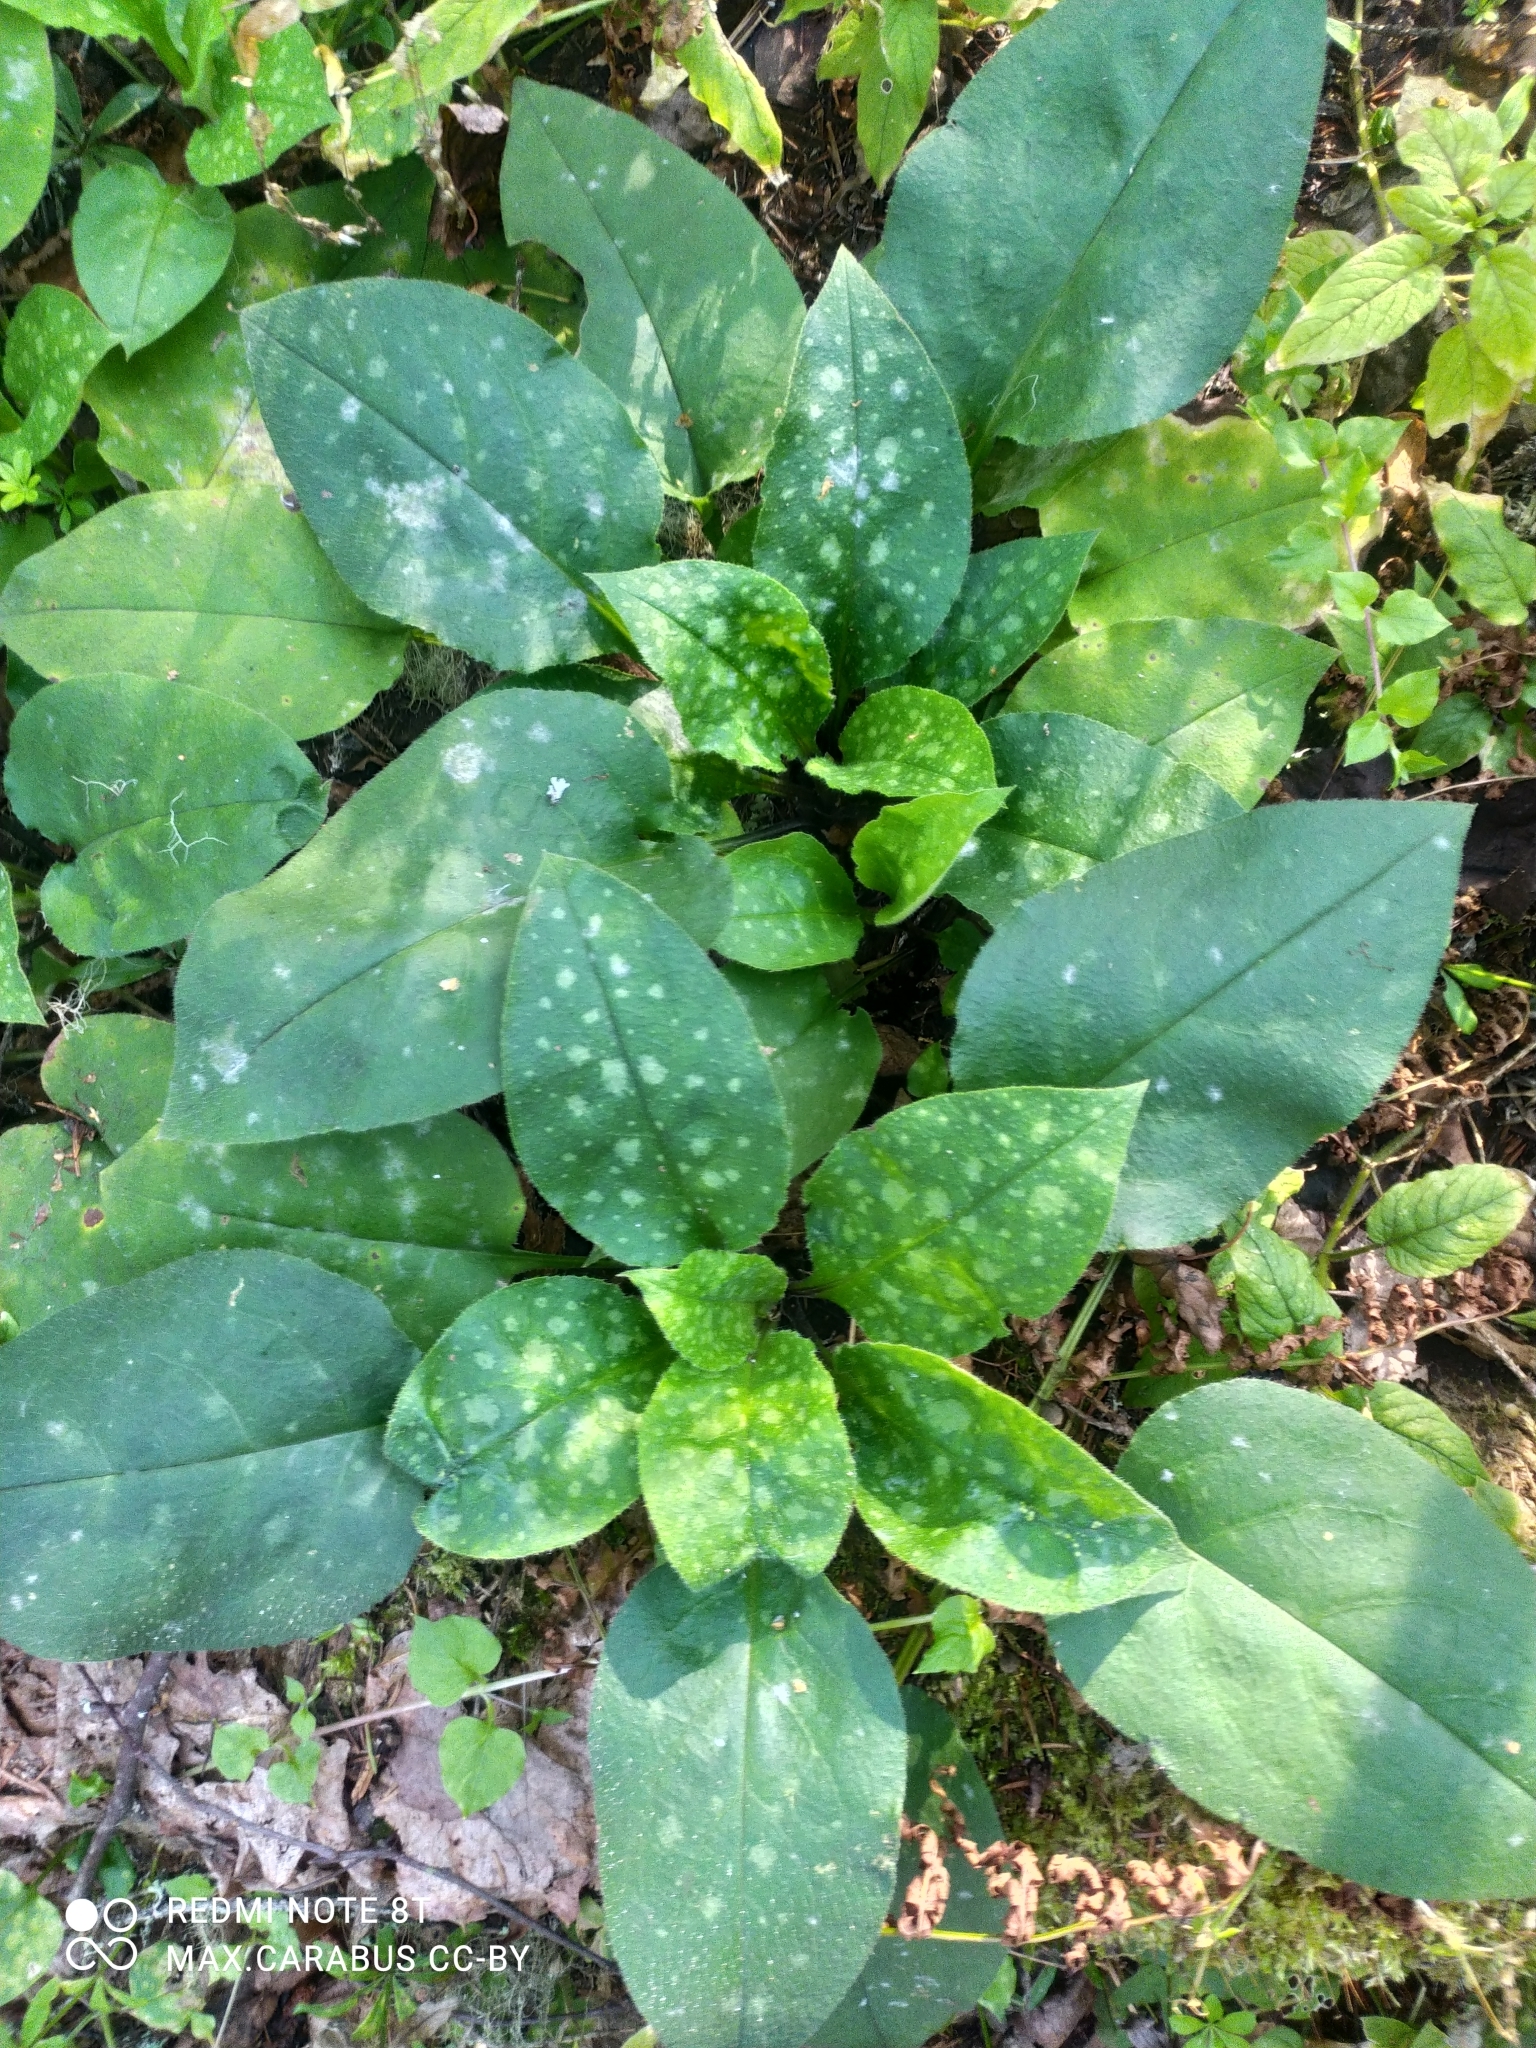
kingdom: Plantae
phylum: Tracheophyta
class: Magnoliopsida
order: Boraginales
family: Boraginaceae
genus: Pulmonaria
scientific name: Pulmonaria obscura
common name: Suffolk lungwort
